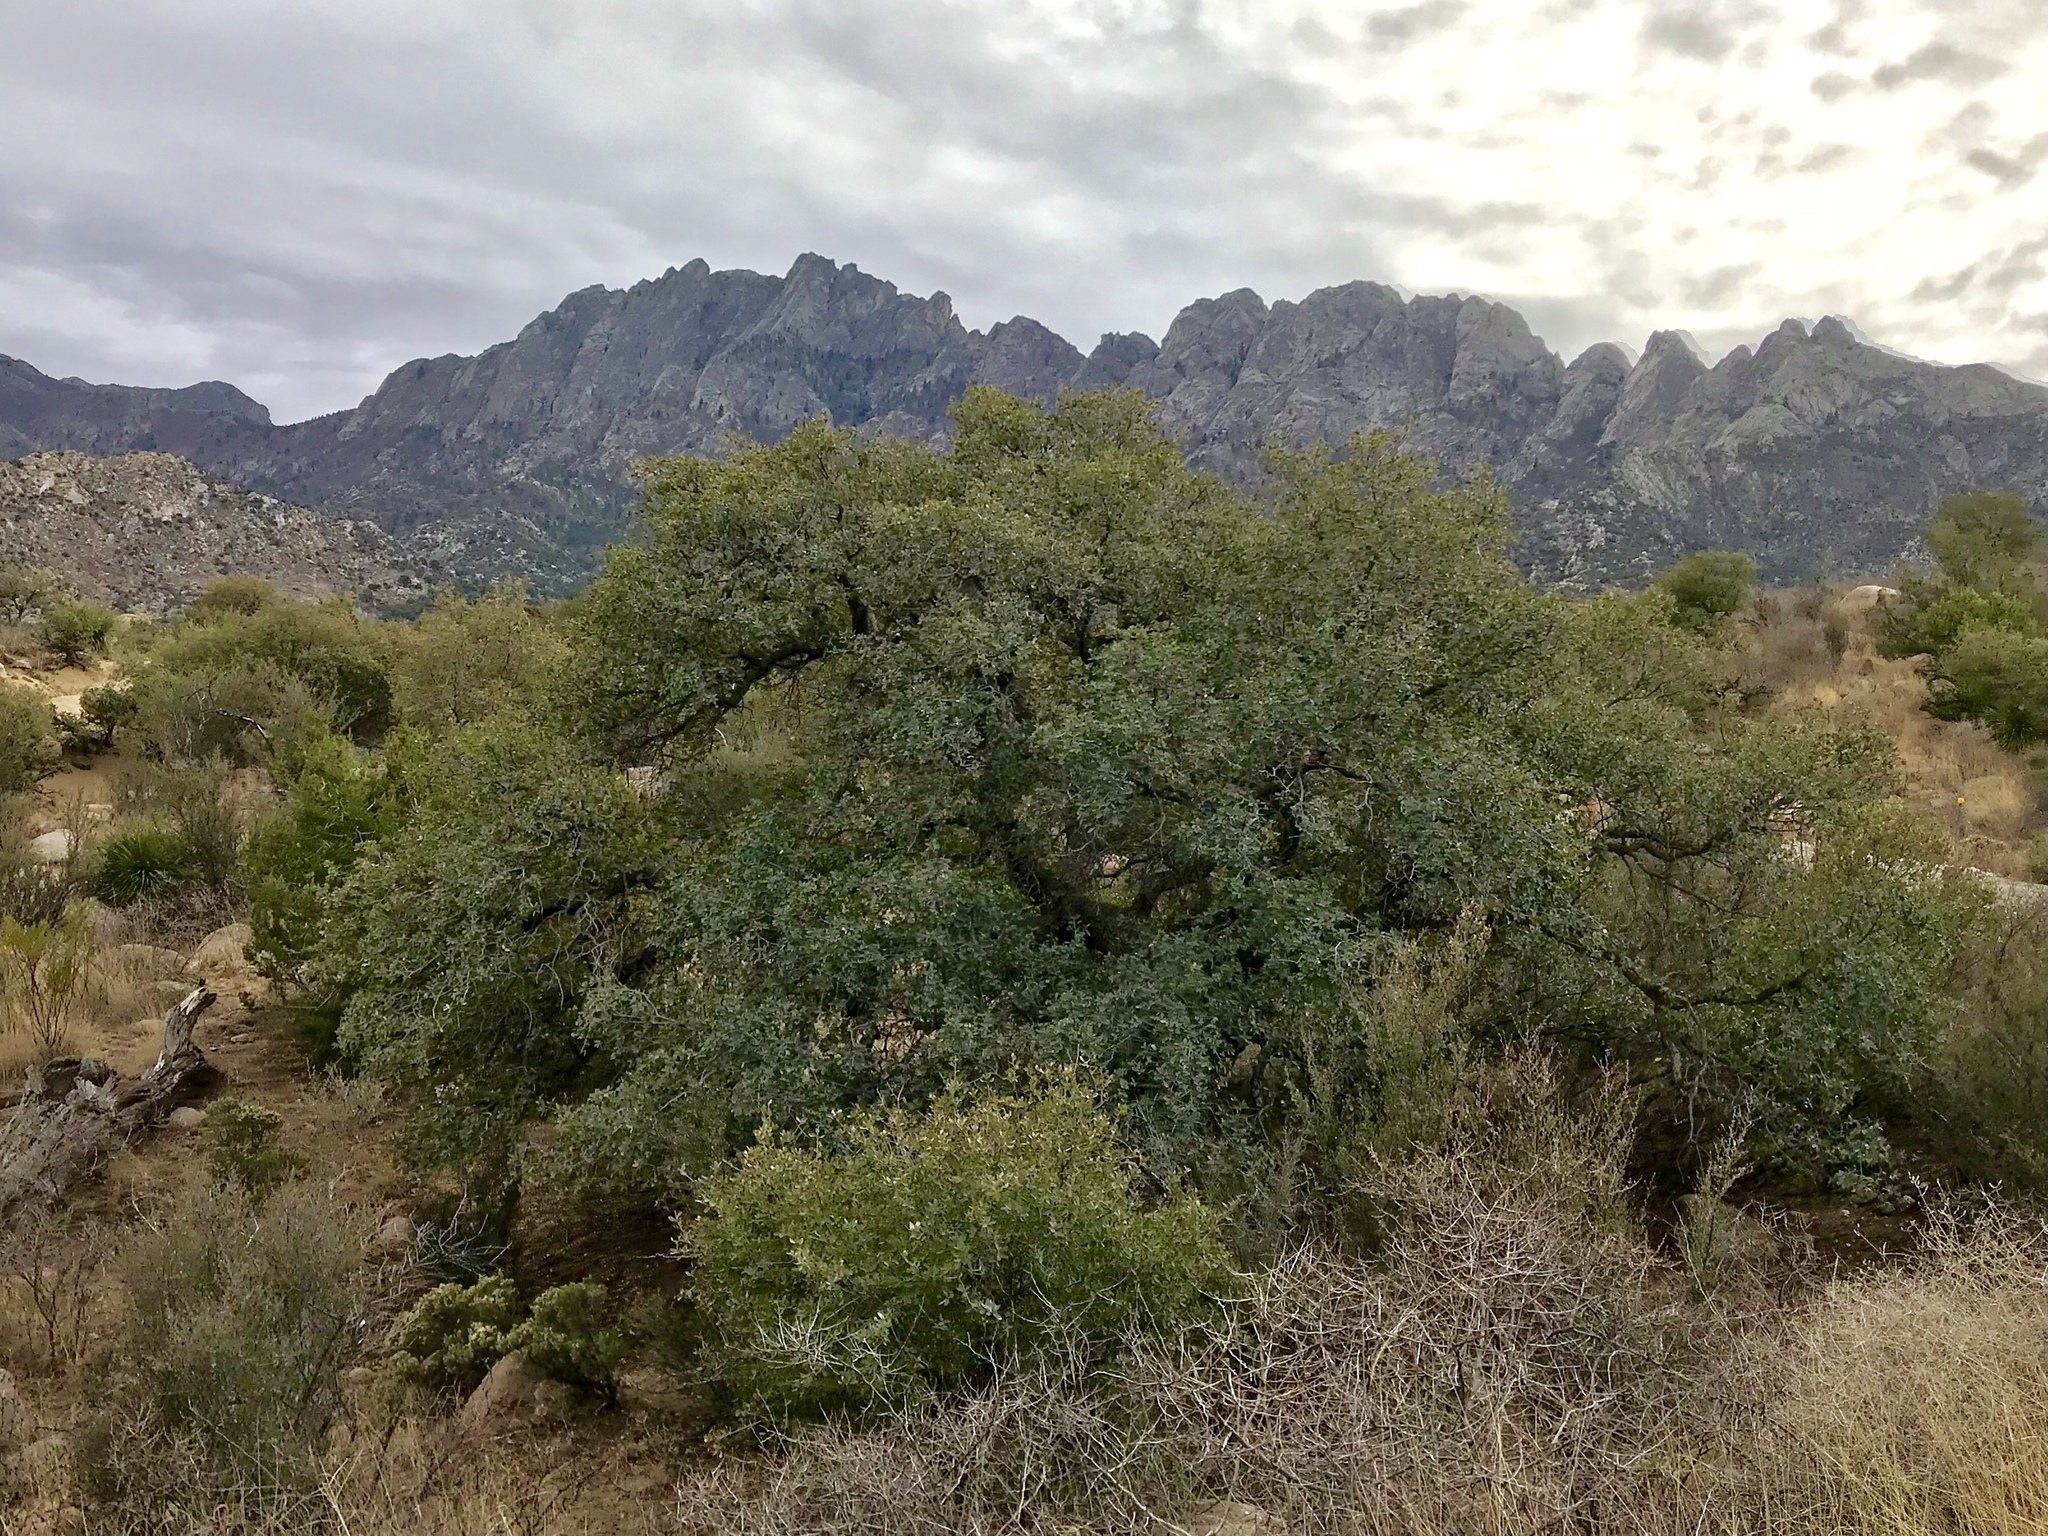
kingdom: Plantae
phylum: Tracheophyta
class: Magnoliopsida
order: Fagales
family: Fagaceae
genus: Quercus
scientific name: Quercus arizonica
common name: Arizona white oak
